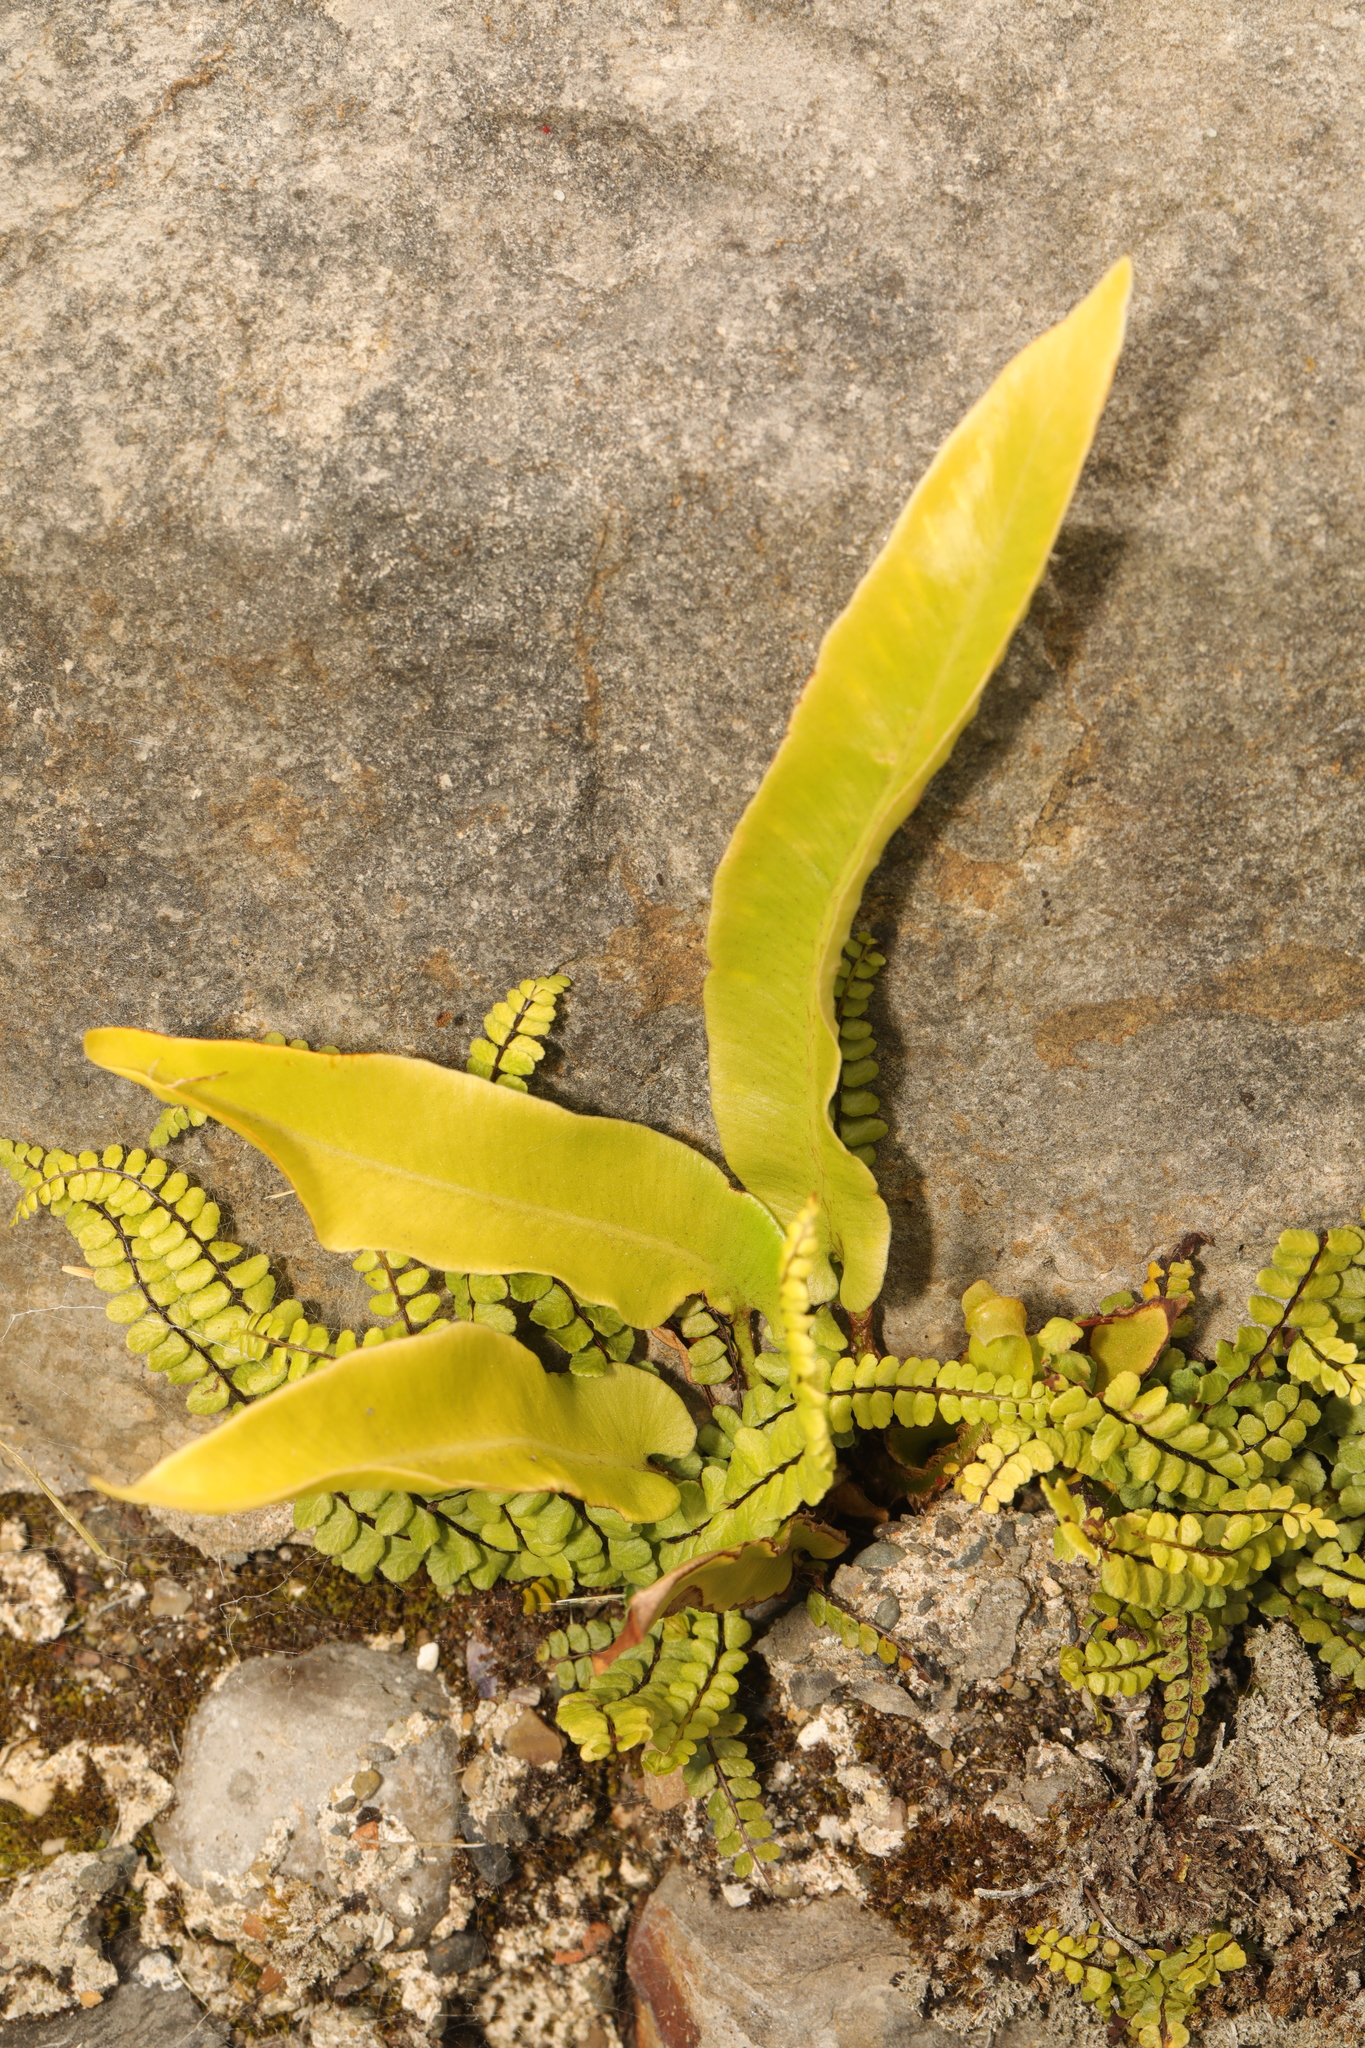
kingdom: Plantae
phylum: Tracheophyta
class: Polypodiopsida
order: Polypodiales
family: Aspleniaceae
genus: Asplenium
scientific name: Asplenium scolopendrium
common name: Hart's-tongue fern
